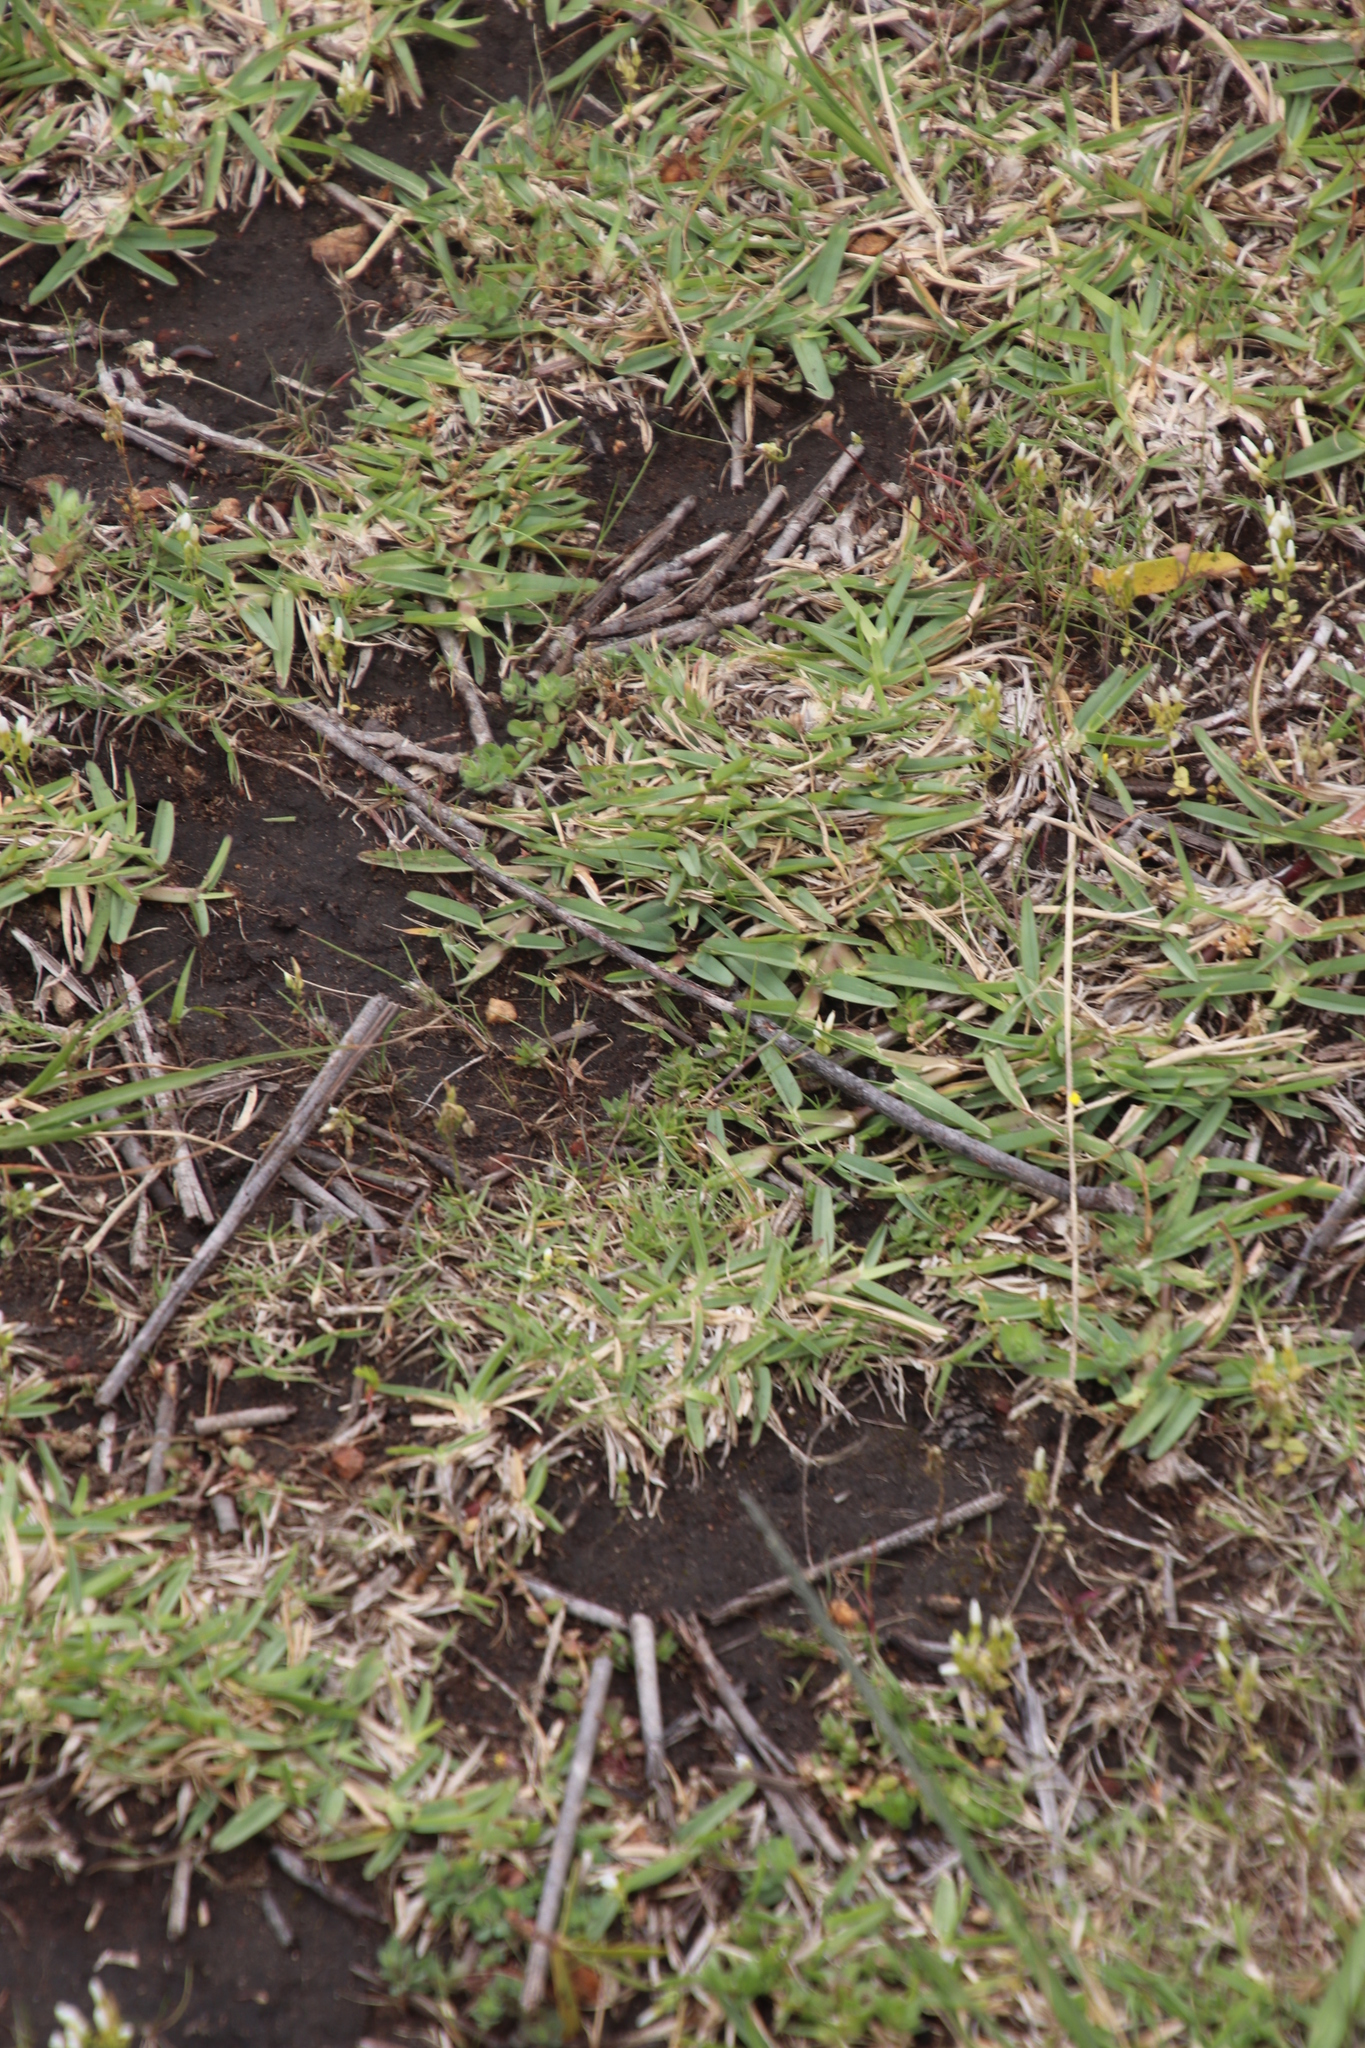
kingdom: Plantae
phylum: Tracheophyta
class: Liliopsida
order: Poales
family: Poaceae
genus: Stenotaphrum
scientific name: Stenotaphrum secundatum
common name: St. augustine grass
